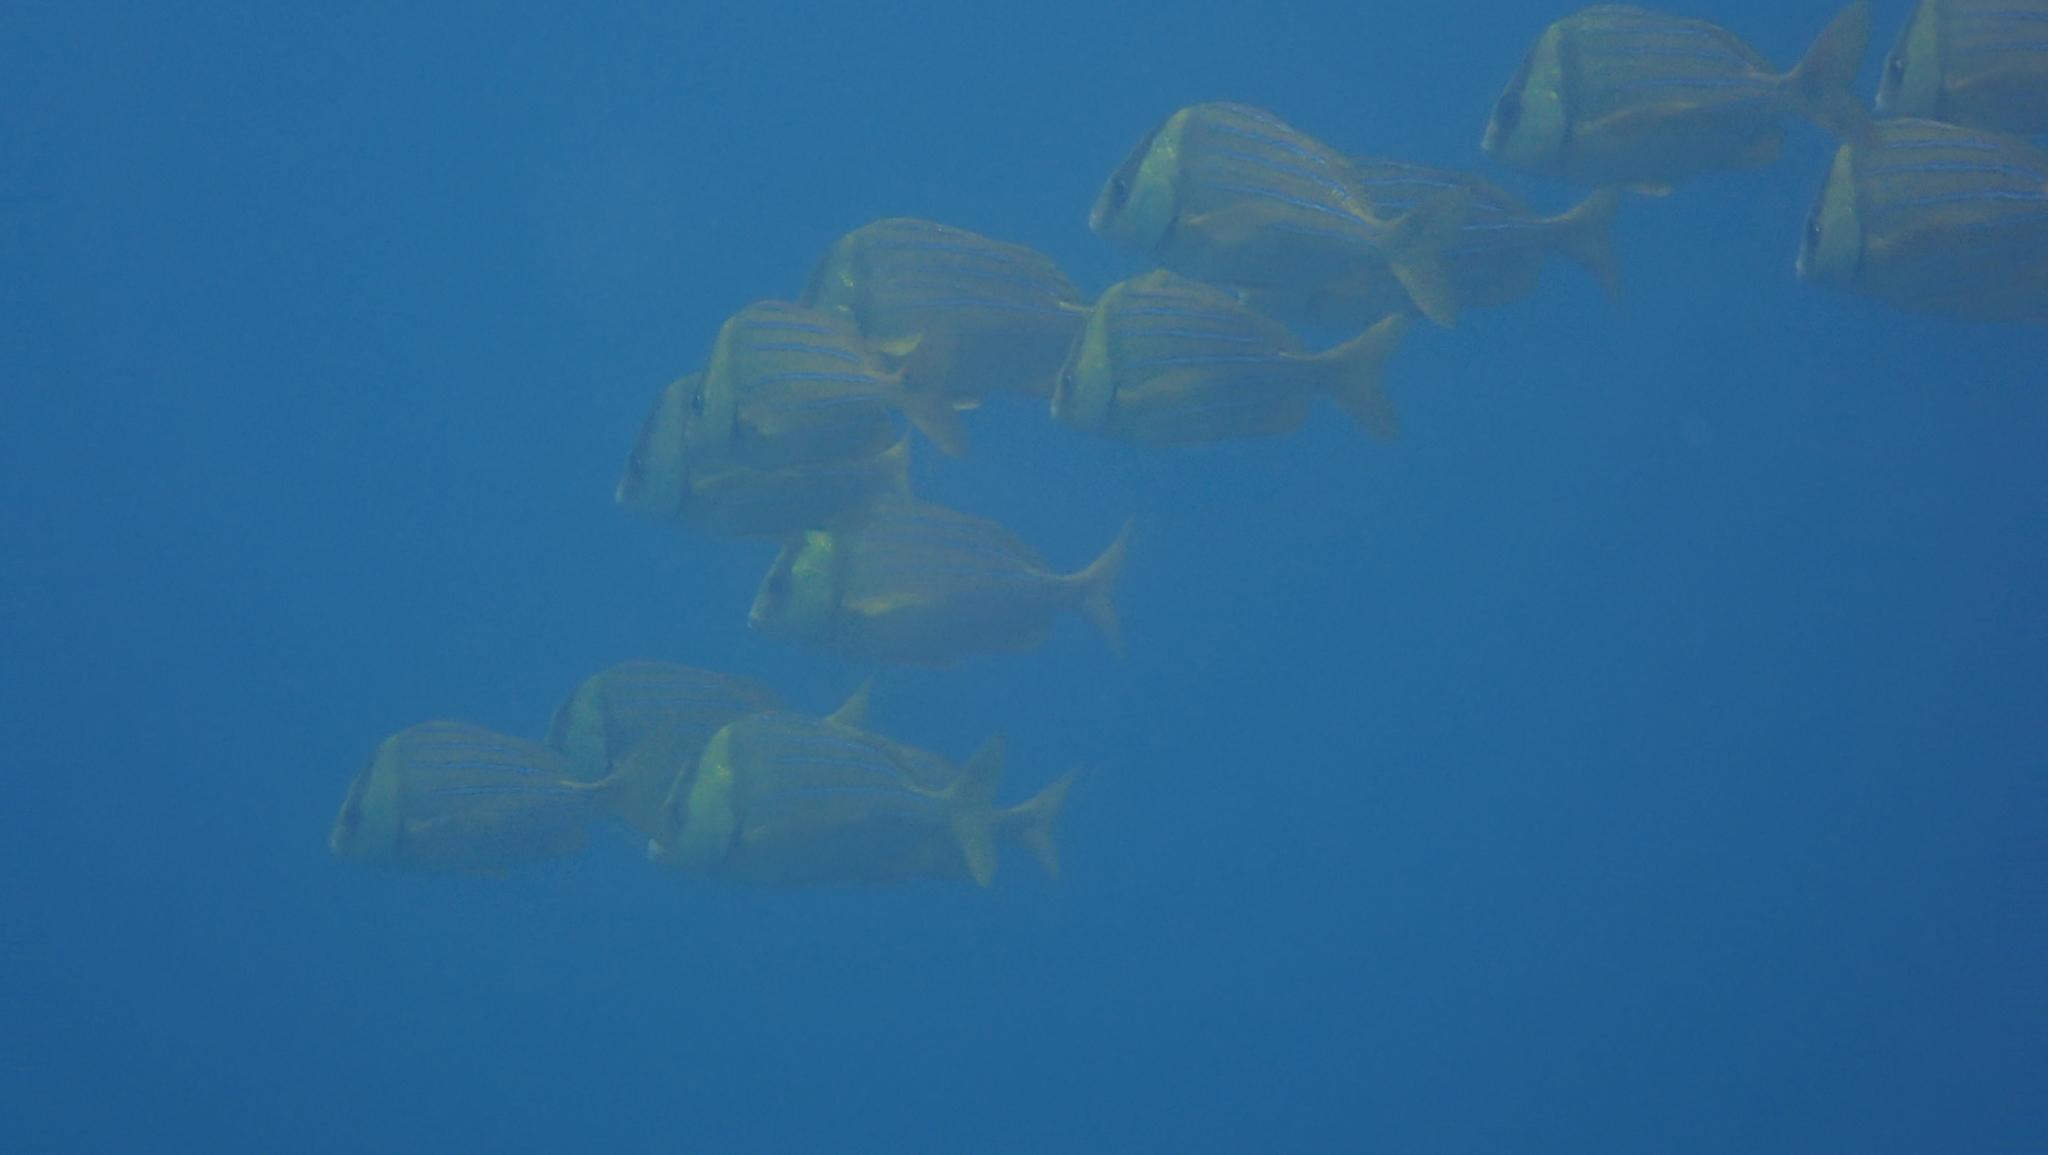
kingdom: Animalia
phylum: Chordata
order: Perciformes
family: Haemulidae
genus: Anisotremus
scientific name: Anisotremus taeniatus
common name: Catalina
